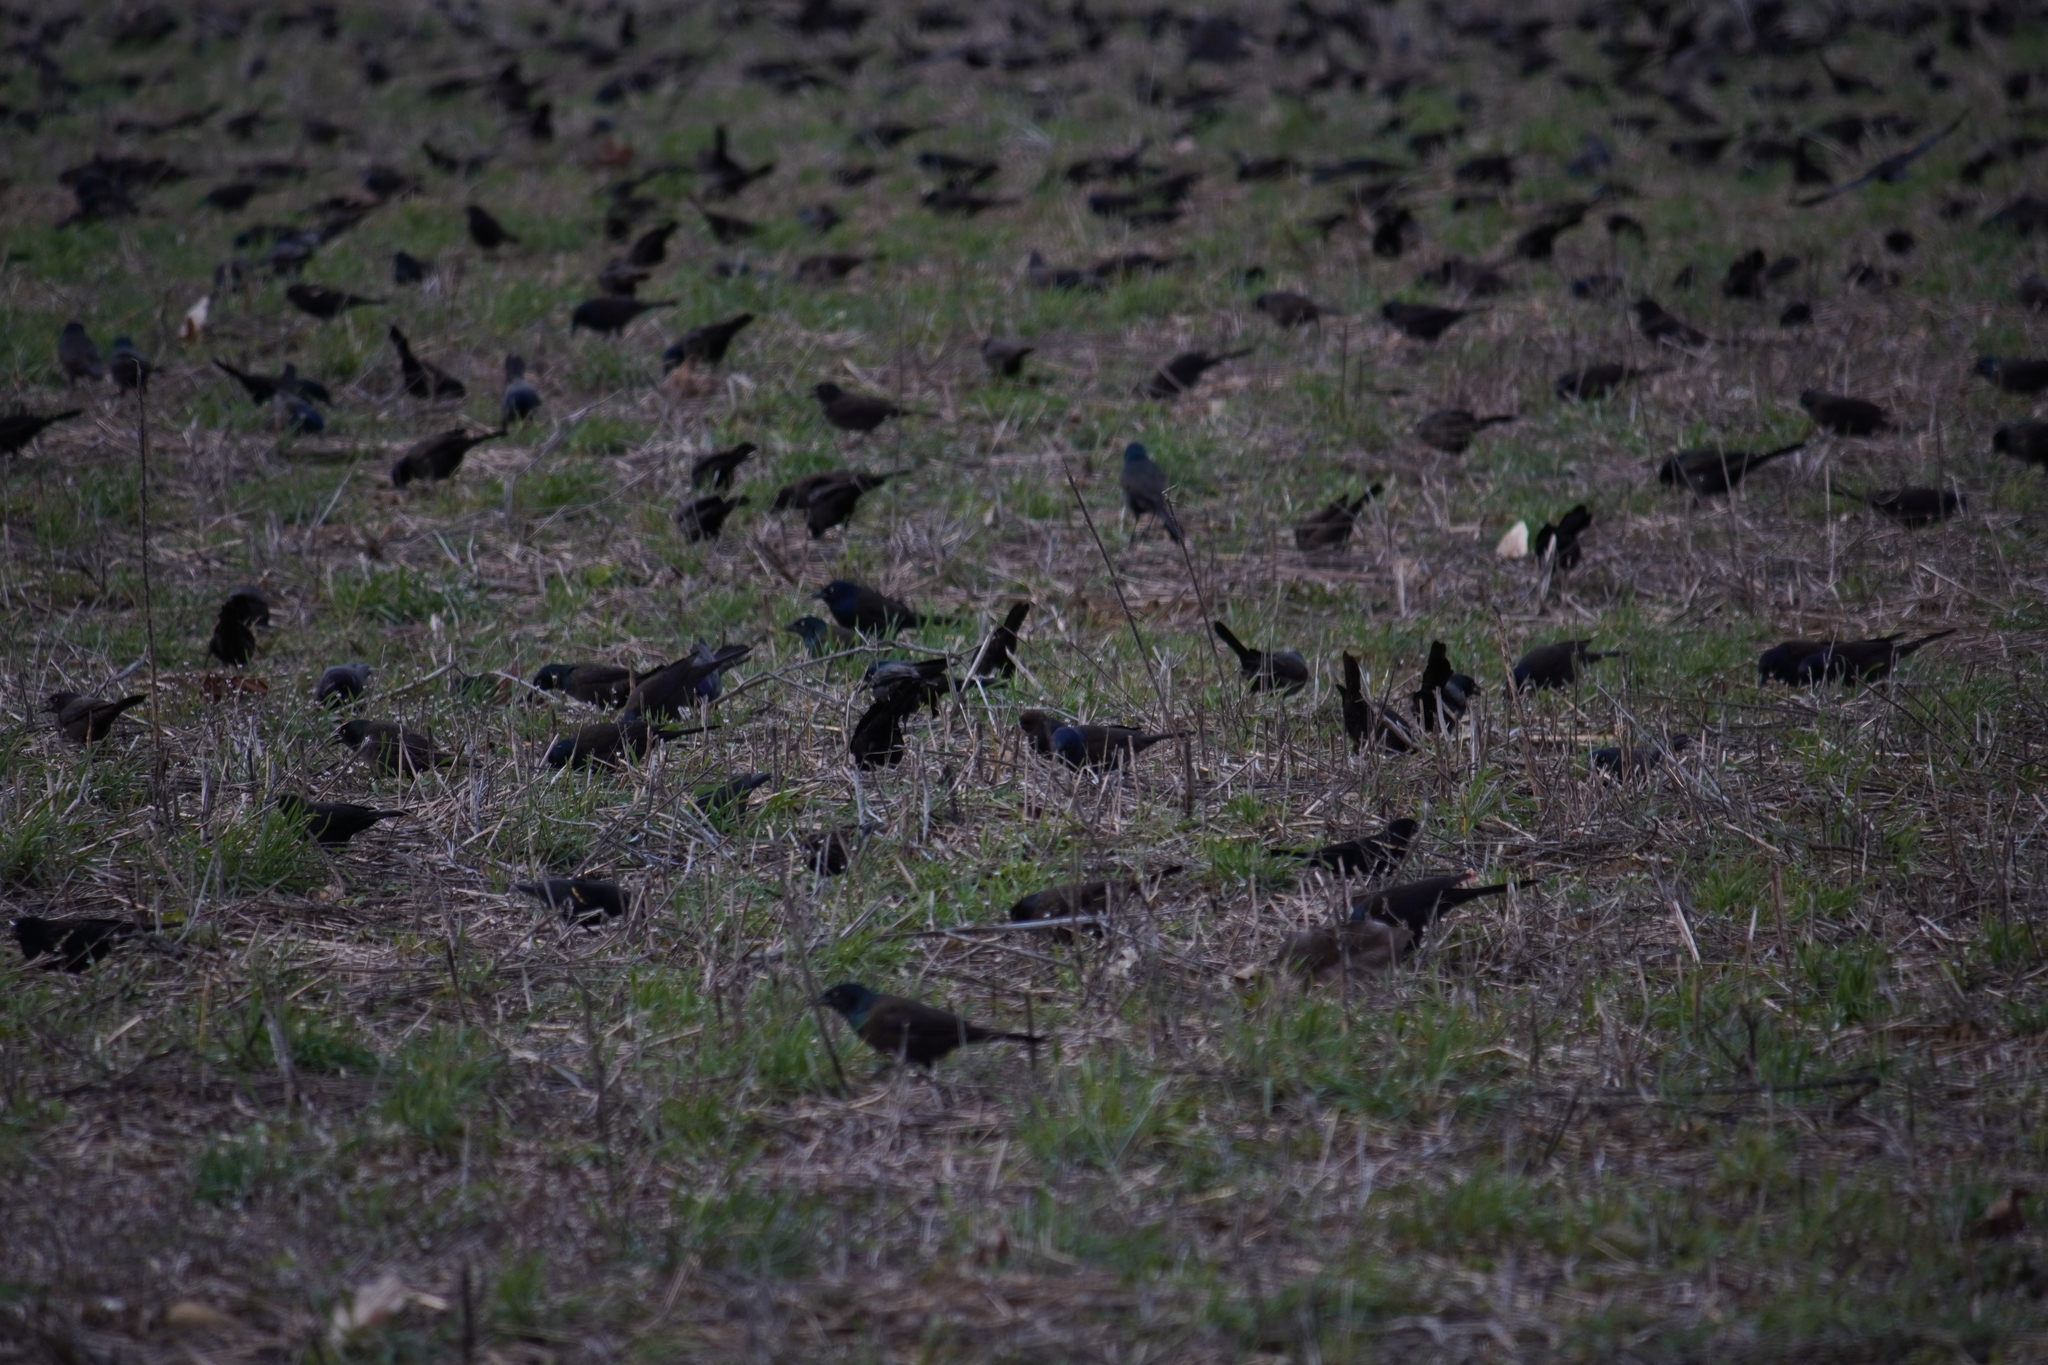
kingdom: Animalia
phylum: Chordata
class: Aves
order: Passeriformes
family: Icteridae
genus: Quiscalus
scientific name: Quiscalus quiscula
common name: Common grackle
